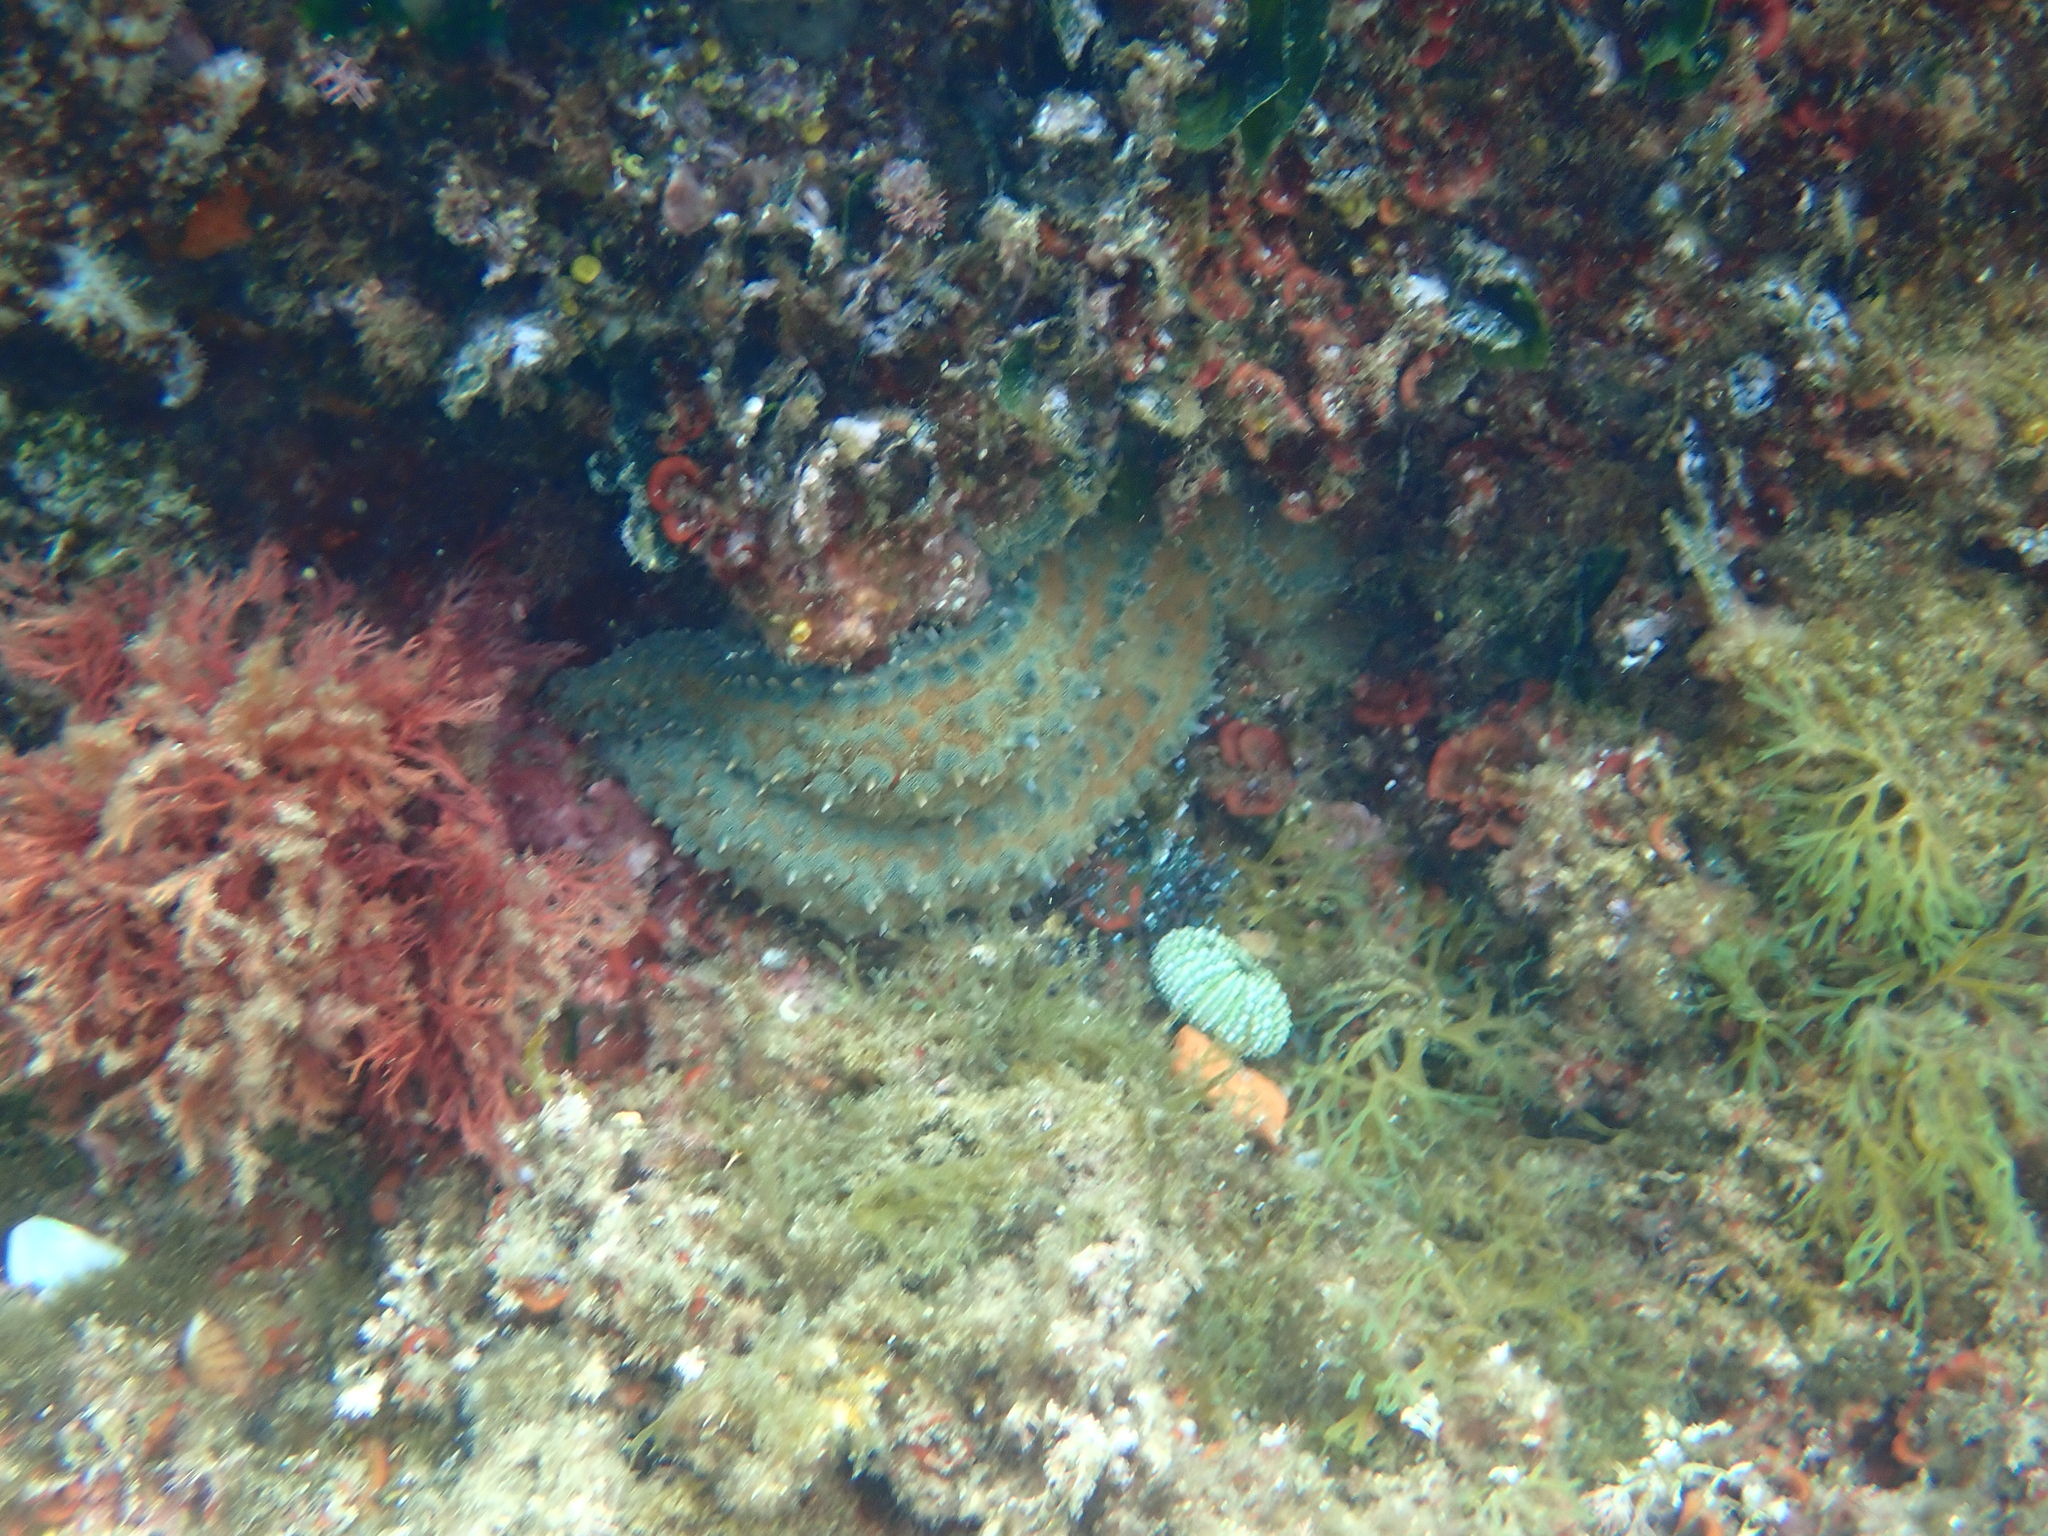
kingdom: Animalia
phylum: Echinodermata
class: Asteroidea
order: Forcipulatida
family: Asteriidae
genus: Marthasterias
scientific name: Marthasterias glacialis
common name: Spiny starfish
